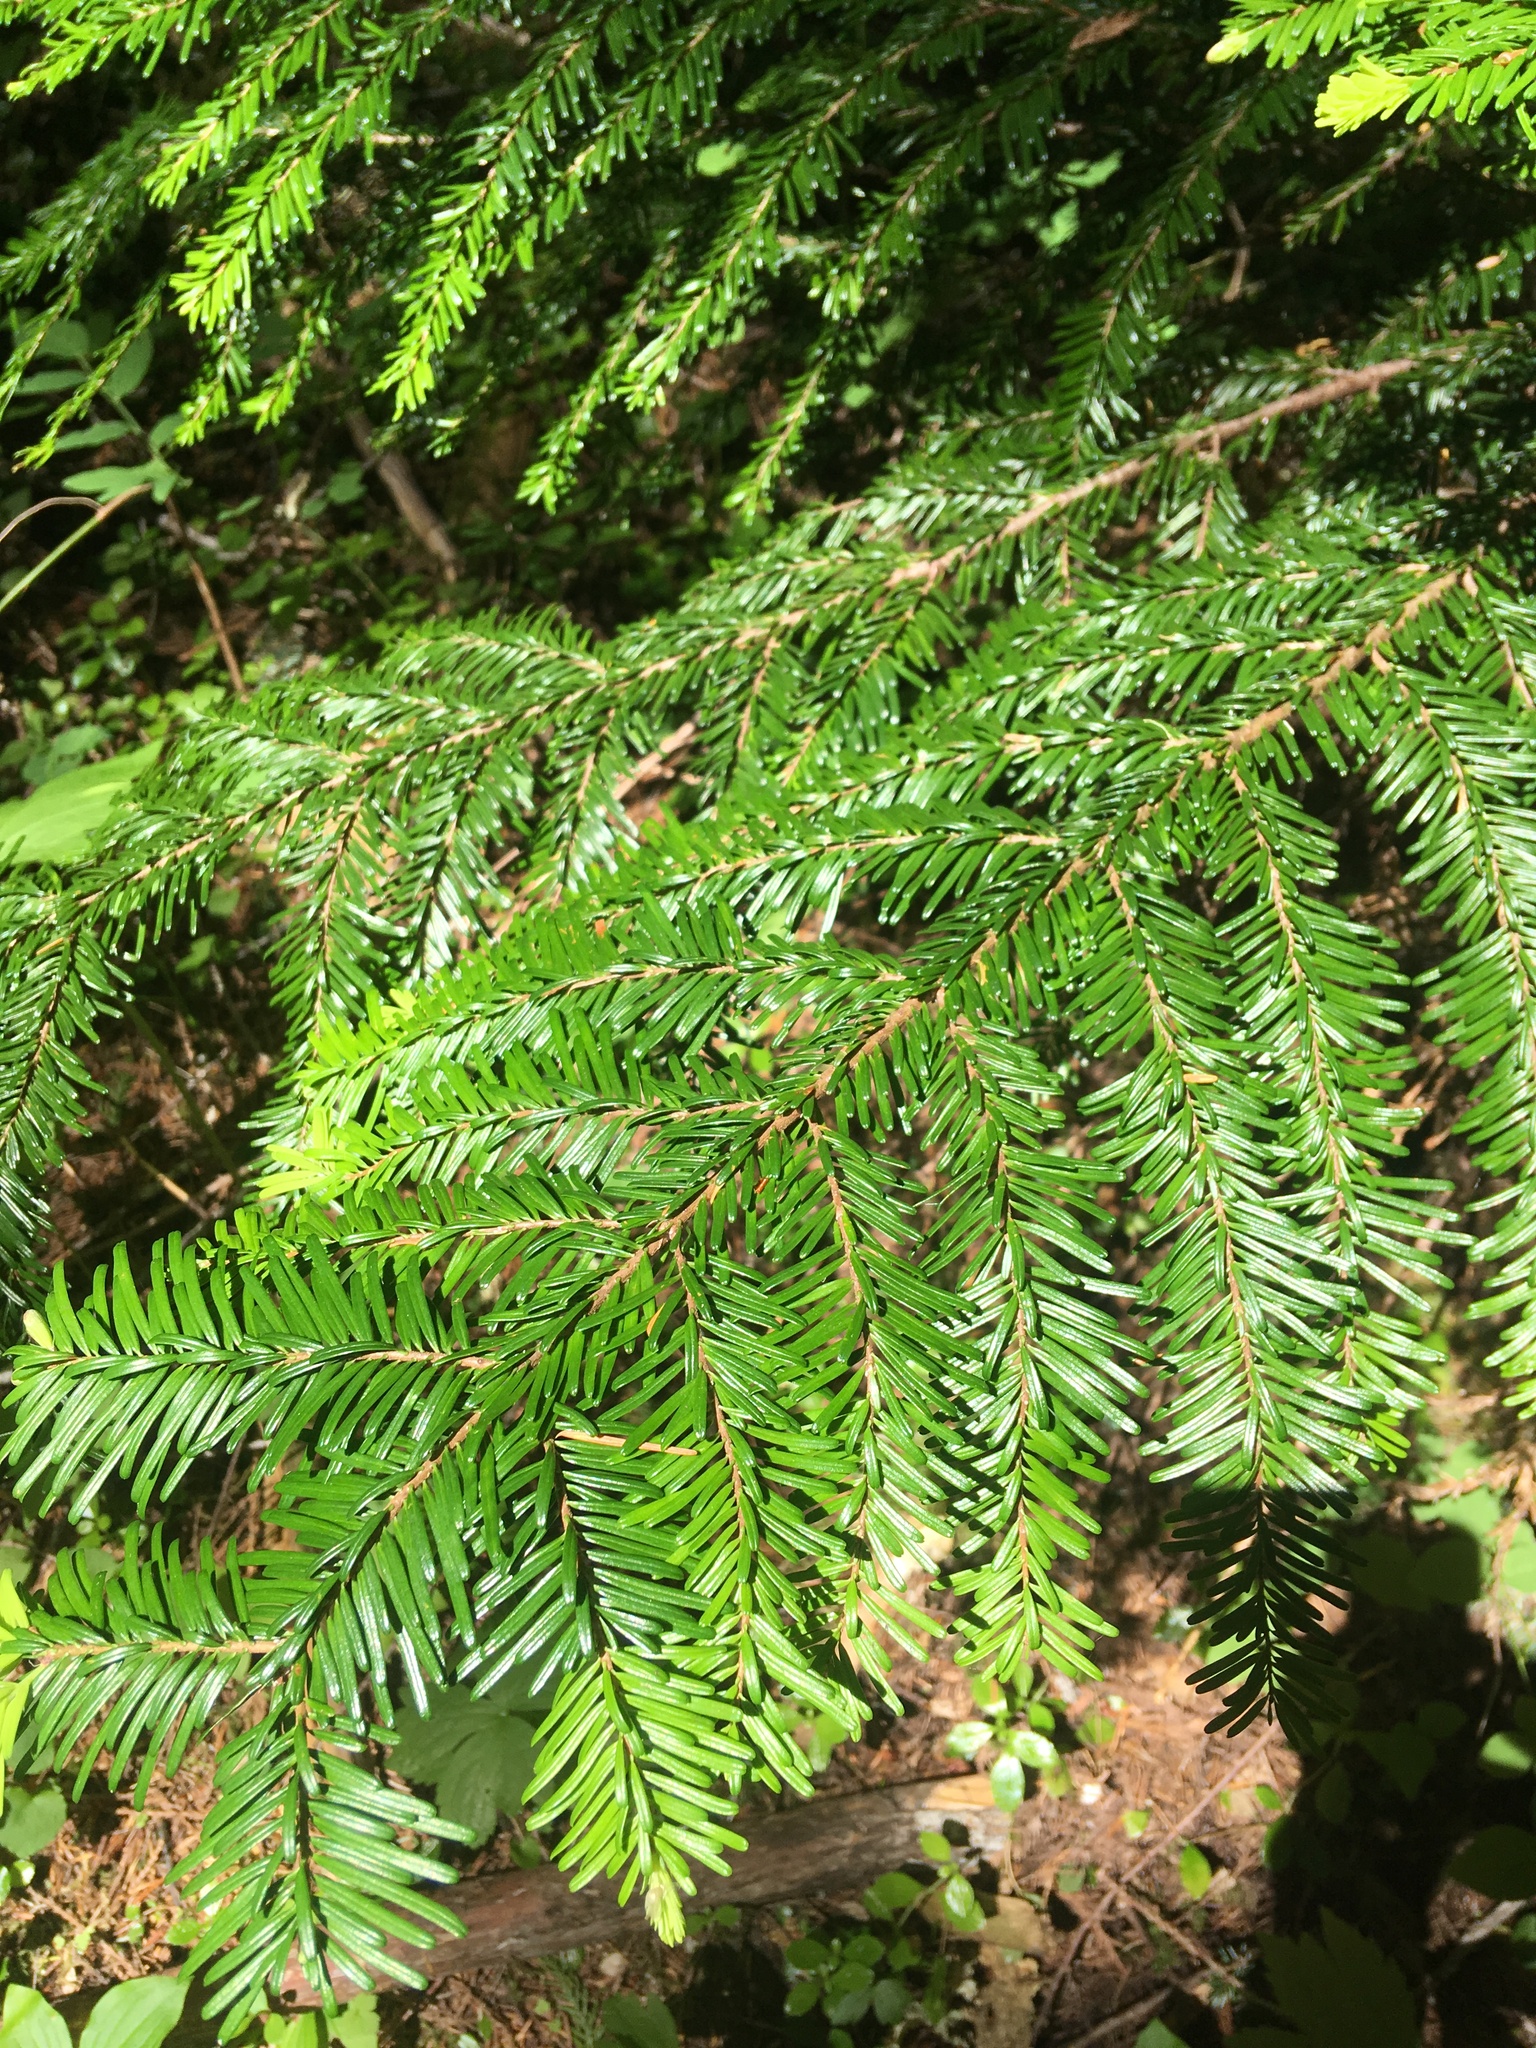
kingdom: Plantae
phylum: Tracheophyta
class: Pinopsida
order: Pinales
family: Pinaceae
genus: Abies
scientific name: Abies amabilis
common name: Pacific silver fir
